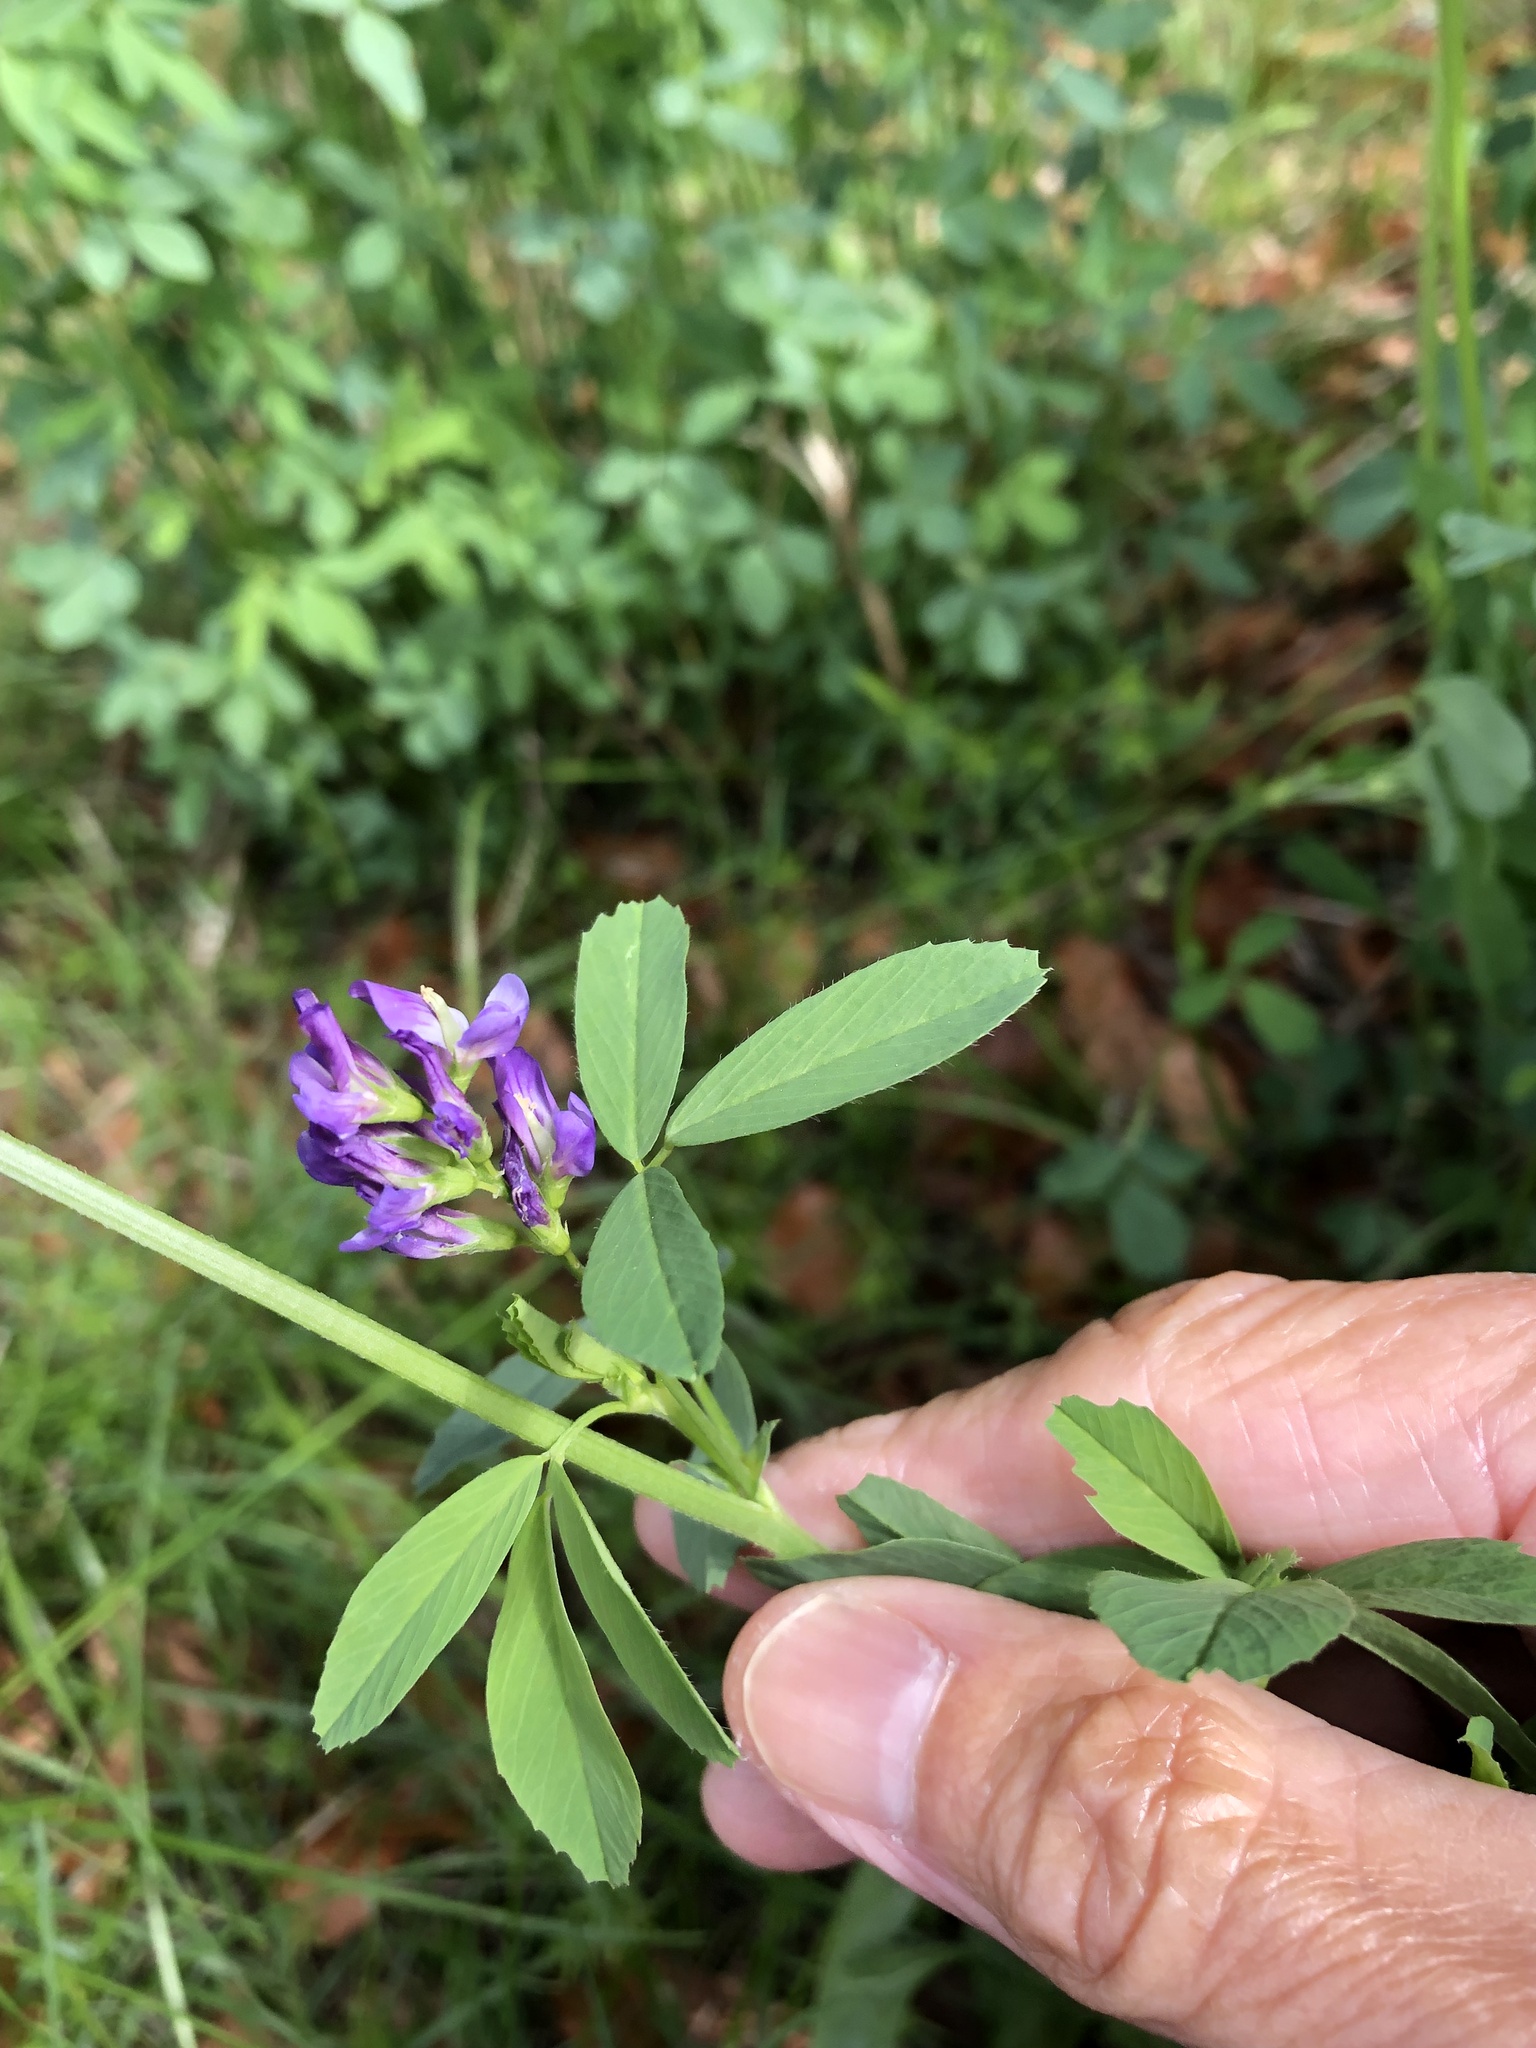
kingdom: Plantae
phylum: Tracheophyta
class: Magnoliopsida
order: Fabales
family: Fabaceae
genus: Medicago
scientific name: Medicago sativa
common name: Alfalfa
